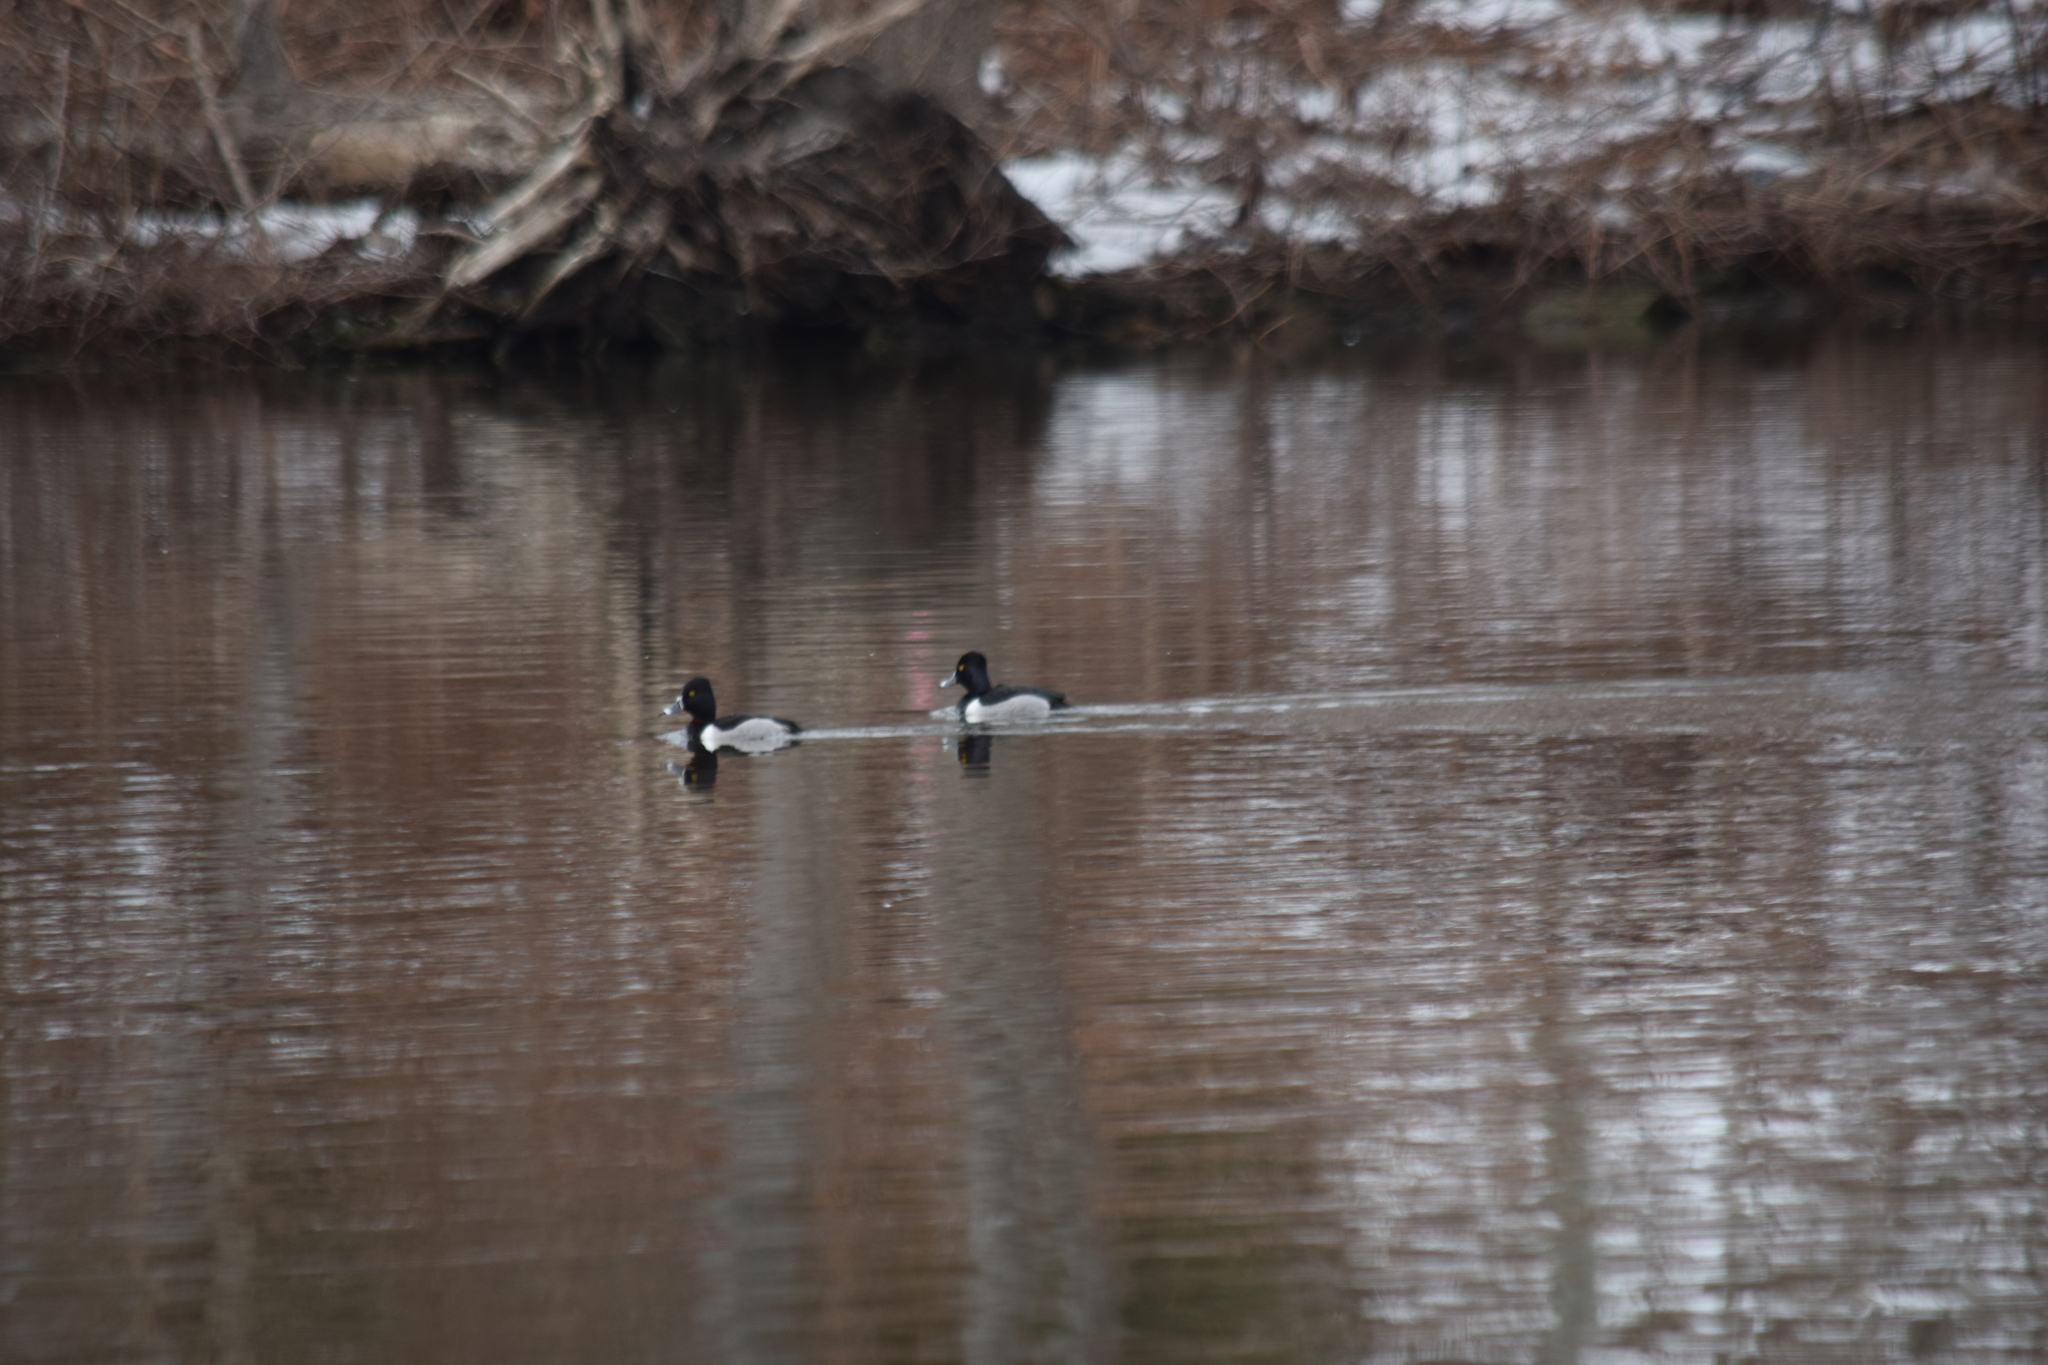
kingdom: Animalia
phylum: Chordata
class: Aves
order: Anseriformes
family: Anatidae
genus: Aythya
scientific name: Aythya collaris
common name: Ring-necked duck
